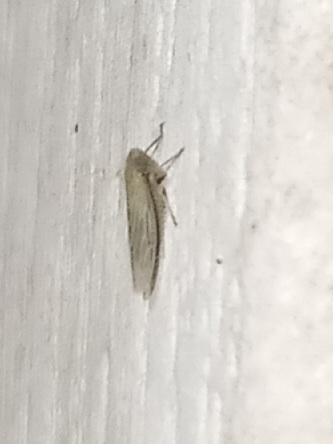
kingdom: Animalia
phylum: Arthropoda
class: Insecta
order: Hemiptera
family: Cicadellidae
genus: Graminella
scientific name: Graminella nigrifrons
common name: Blackfaced leafhopper
